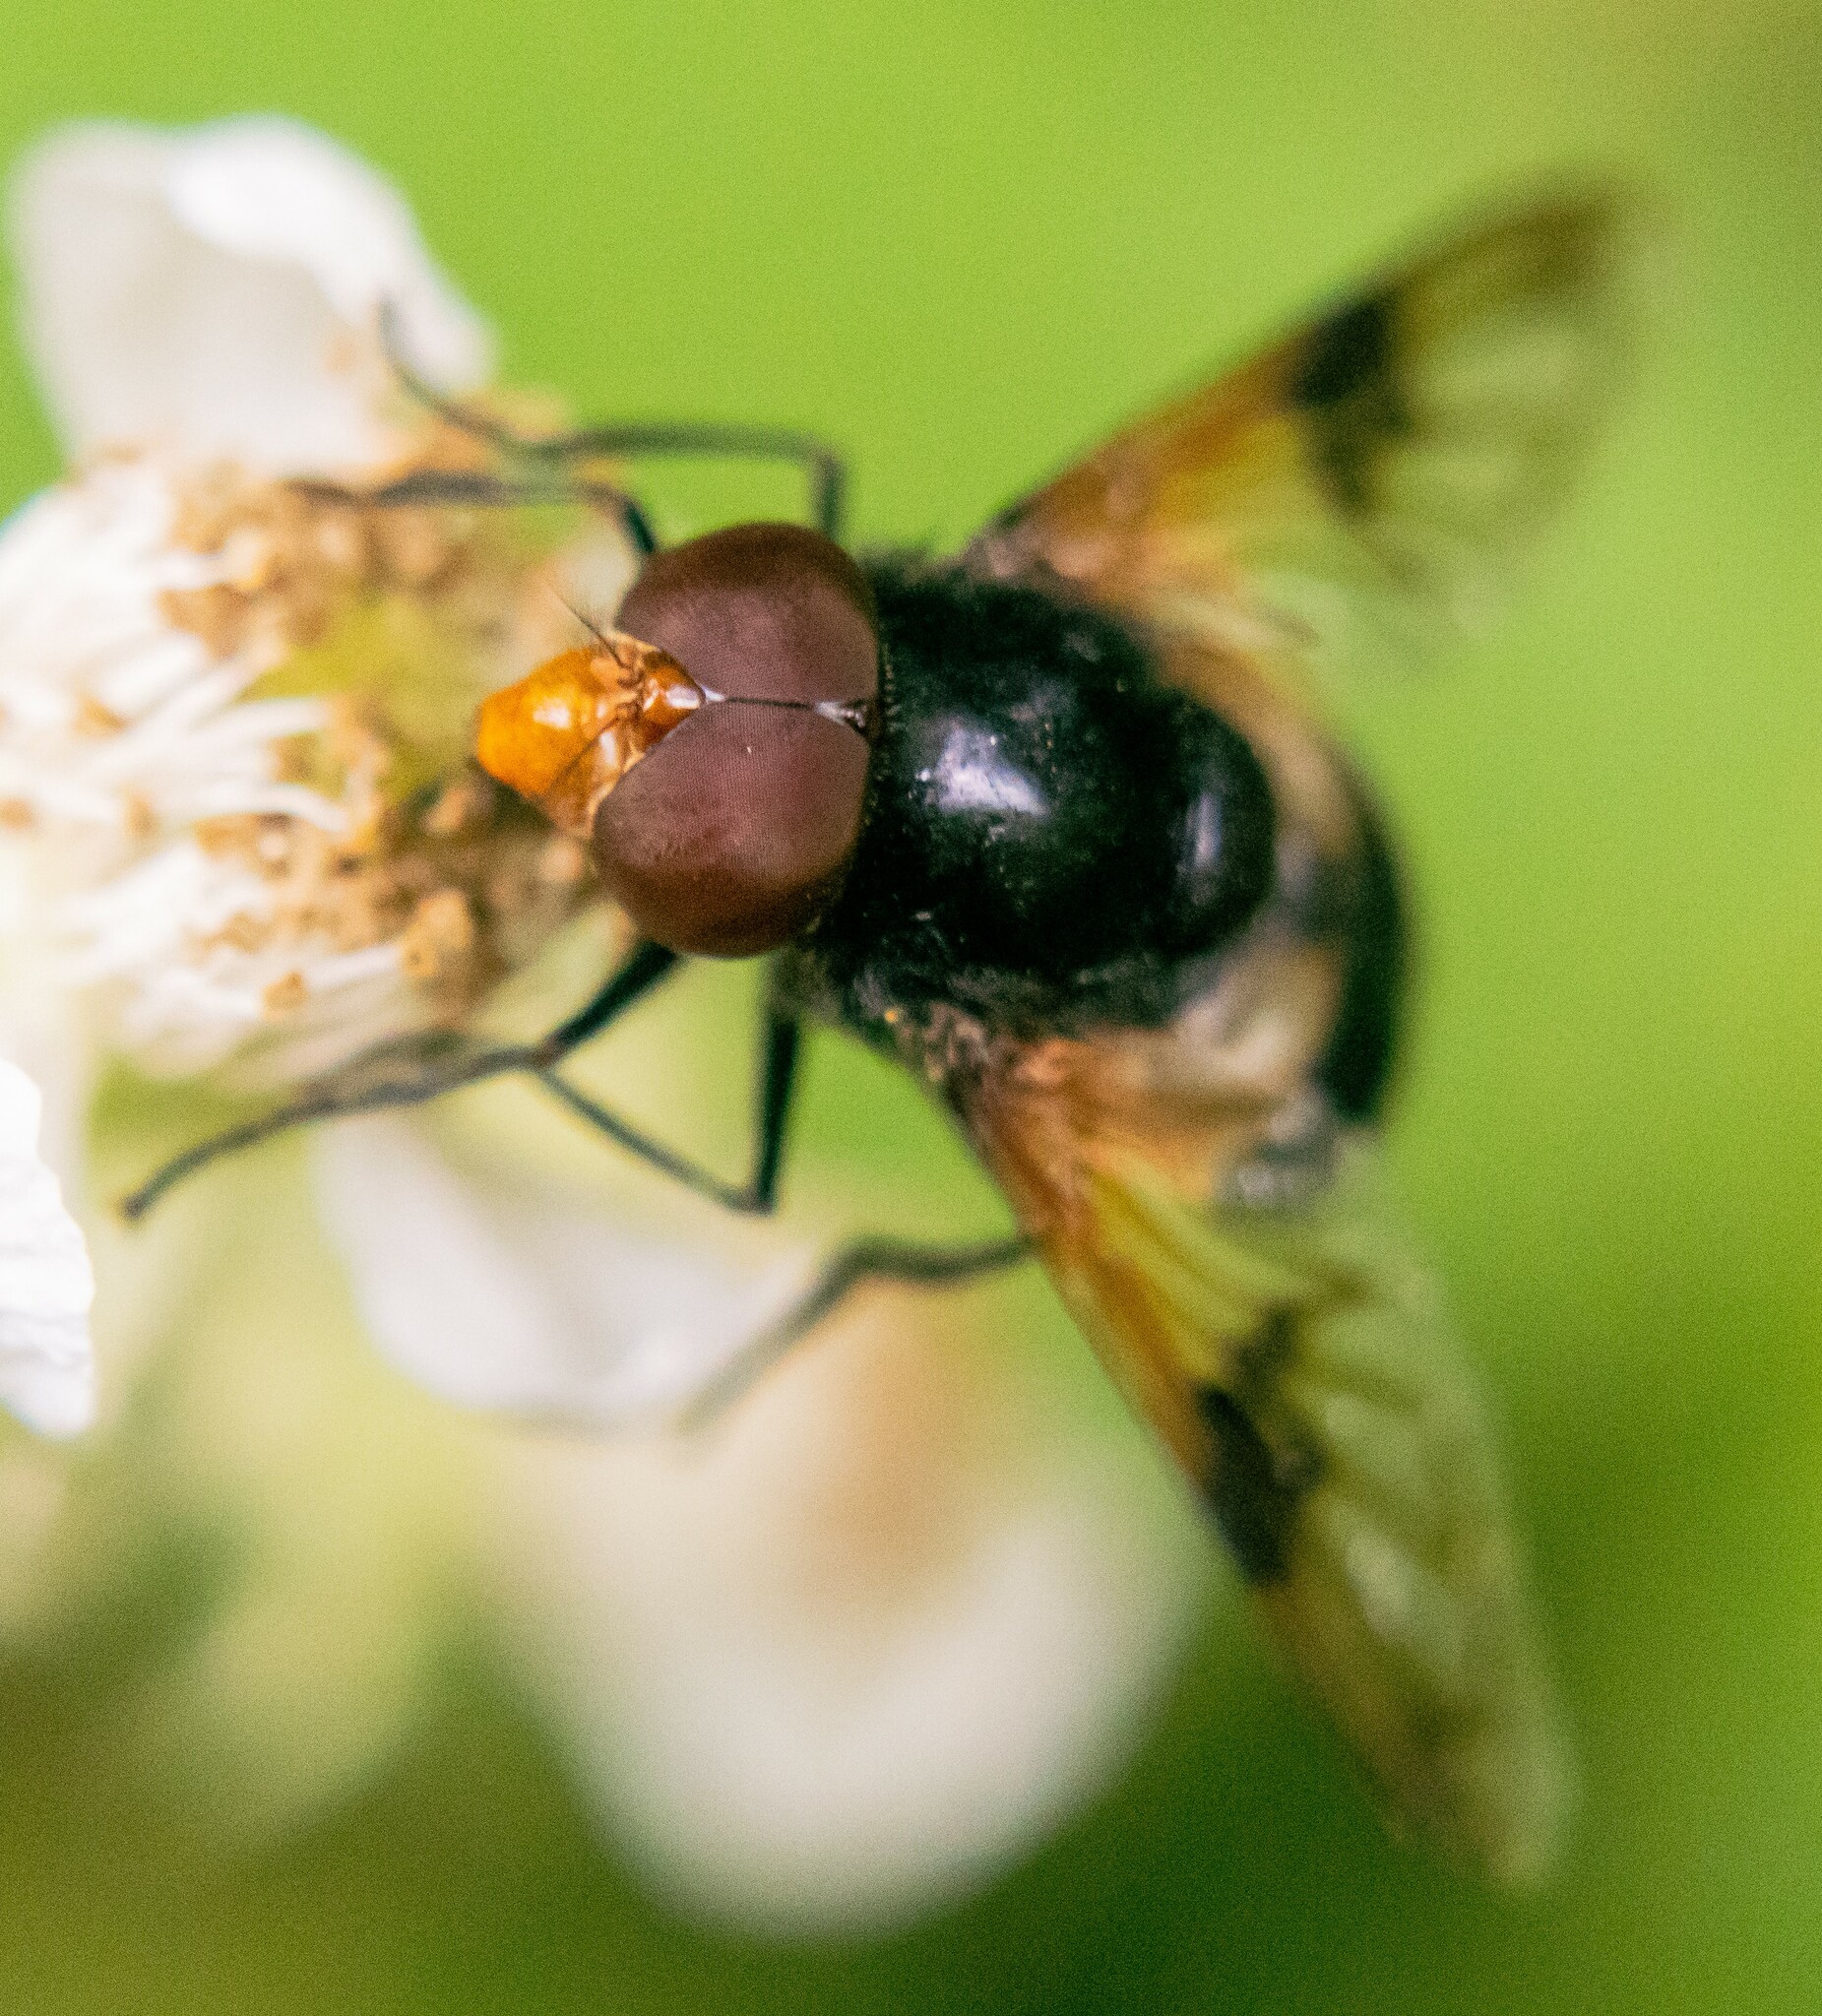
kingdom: Animalia
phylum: Arthropoda
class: Insecta
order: Diptera
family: Syrphidae
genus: Volucella
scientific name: Volucella pellucens
